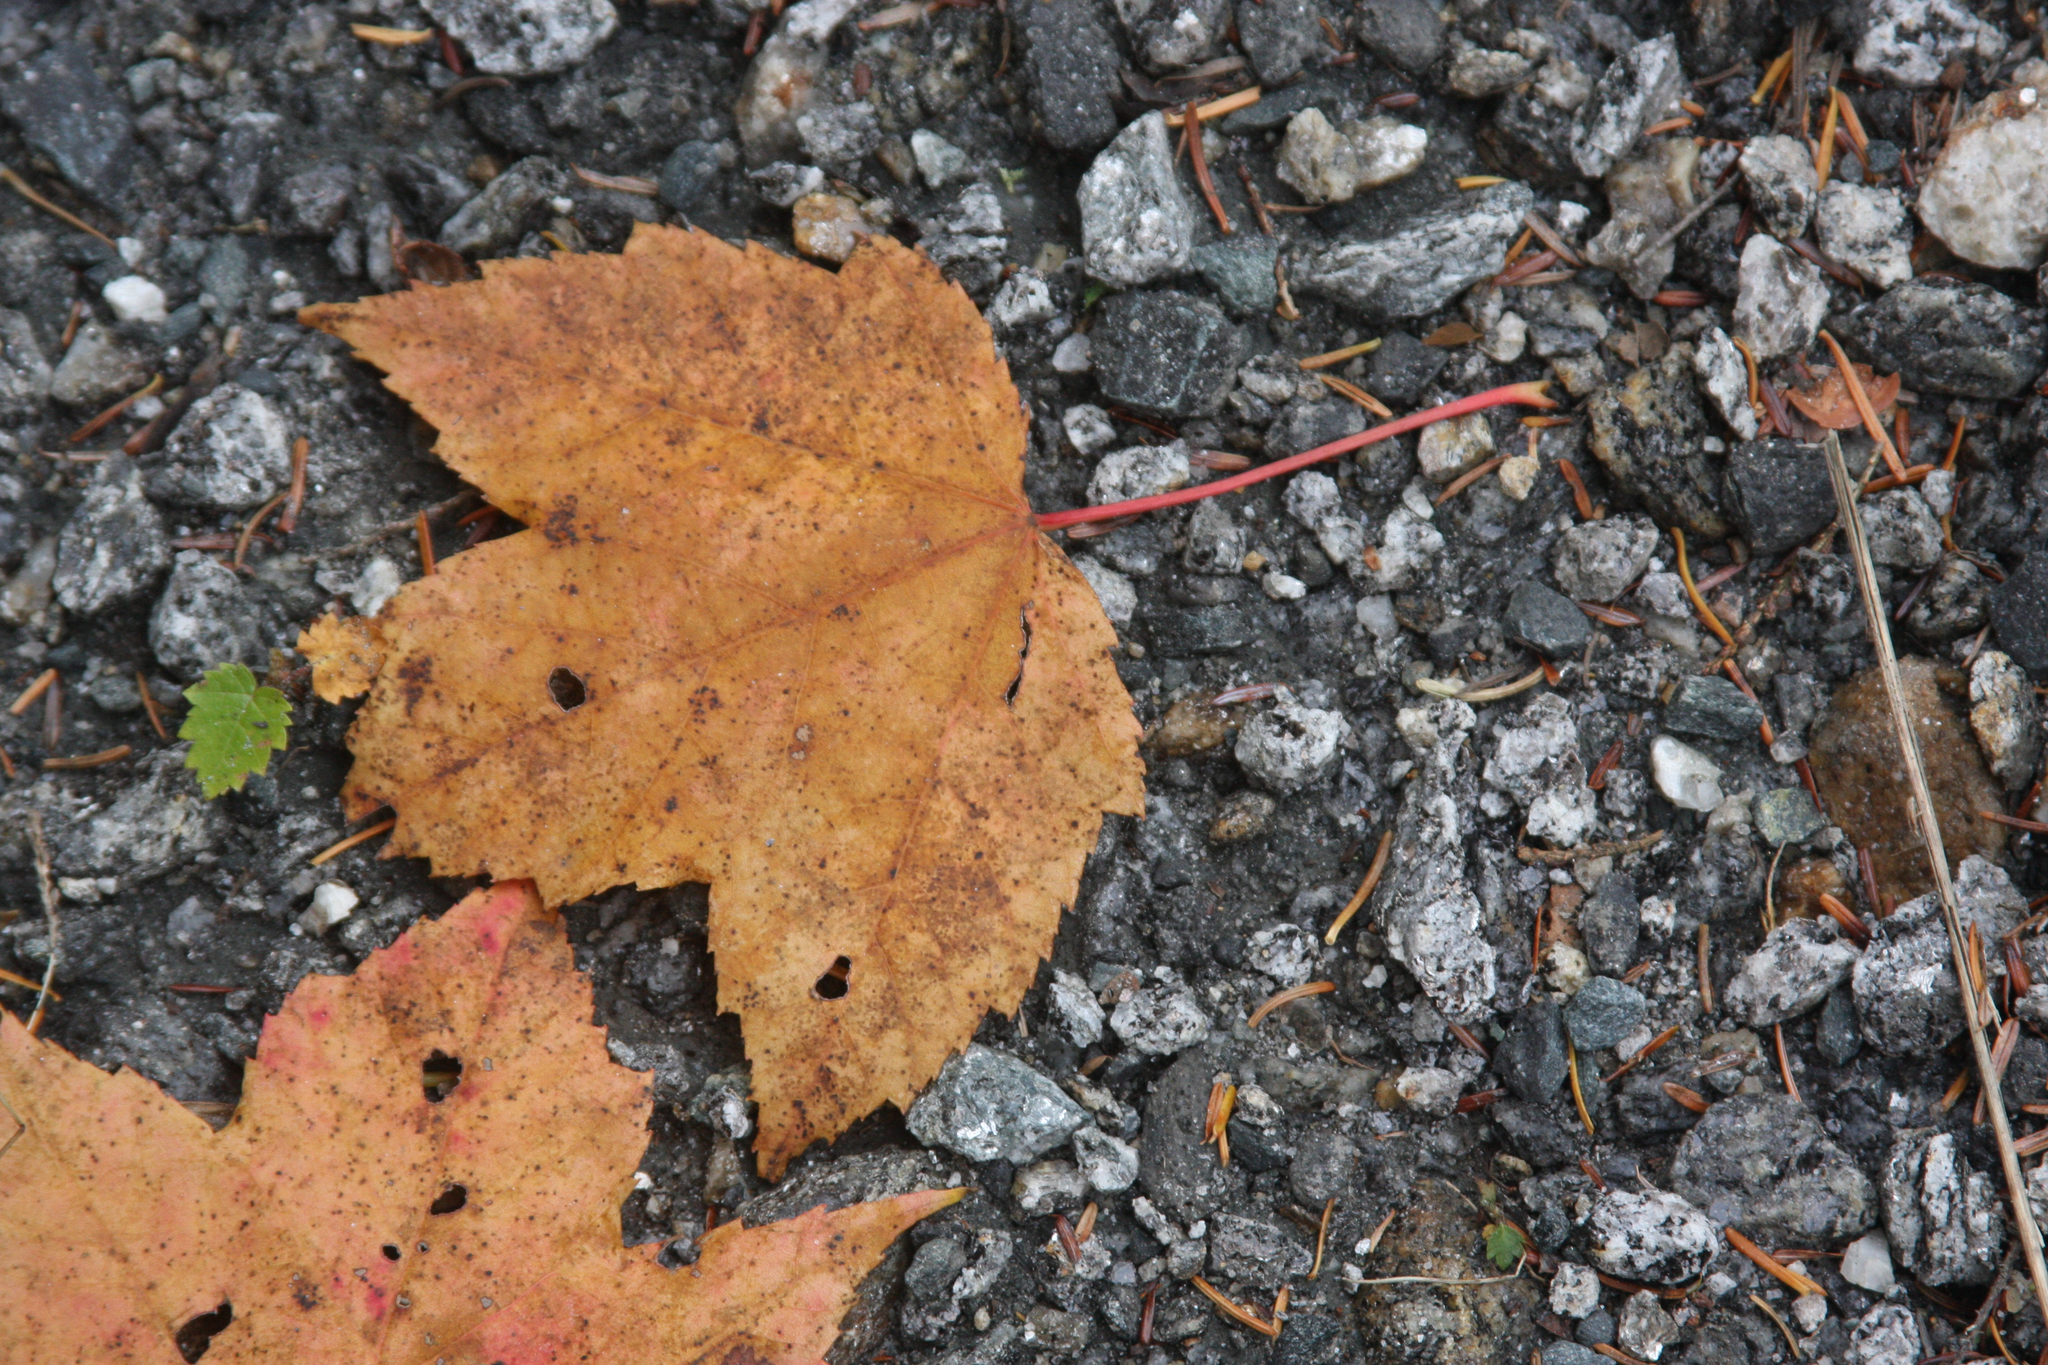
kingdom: Plantae
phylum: Tracheophyta
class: Magnoliopsida
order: Sapindales
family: Sapindaceae
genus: Acer
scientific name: Acer rubrum
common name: Red maple
